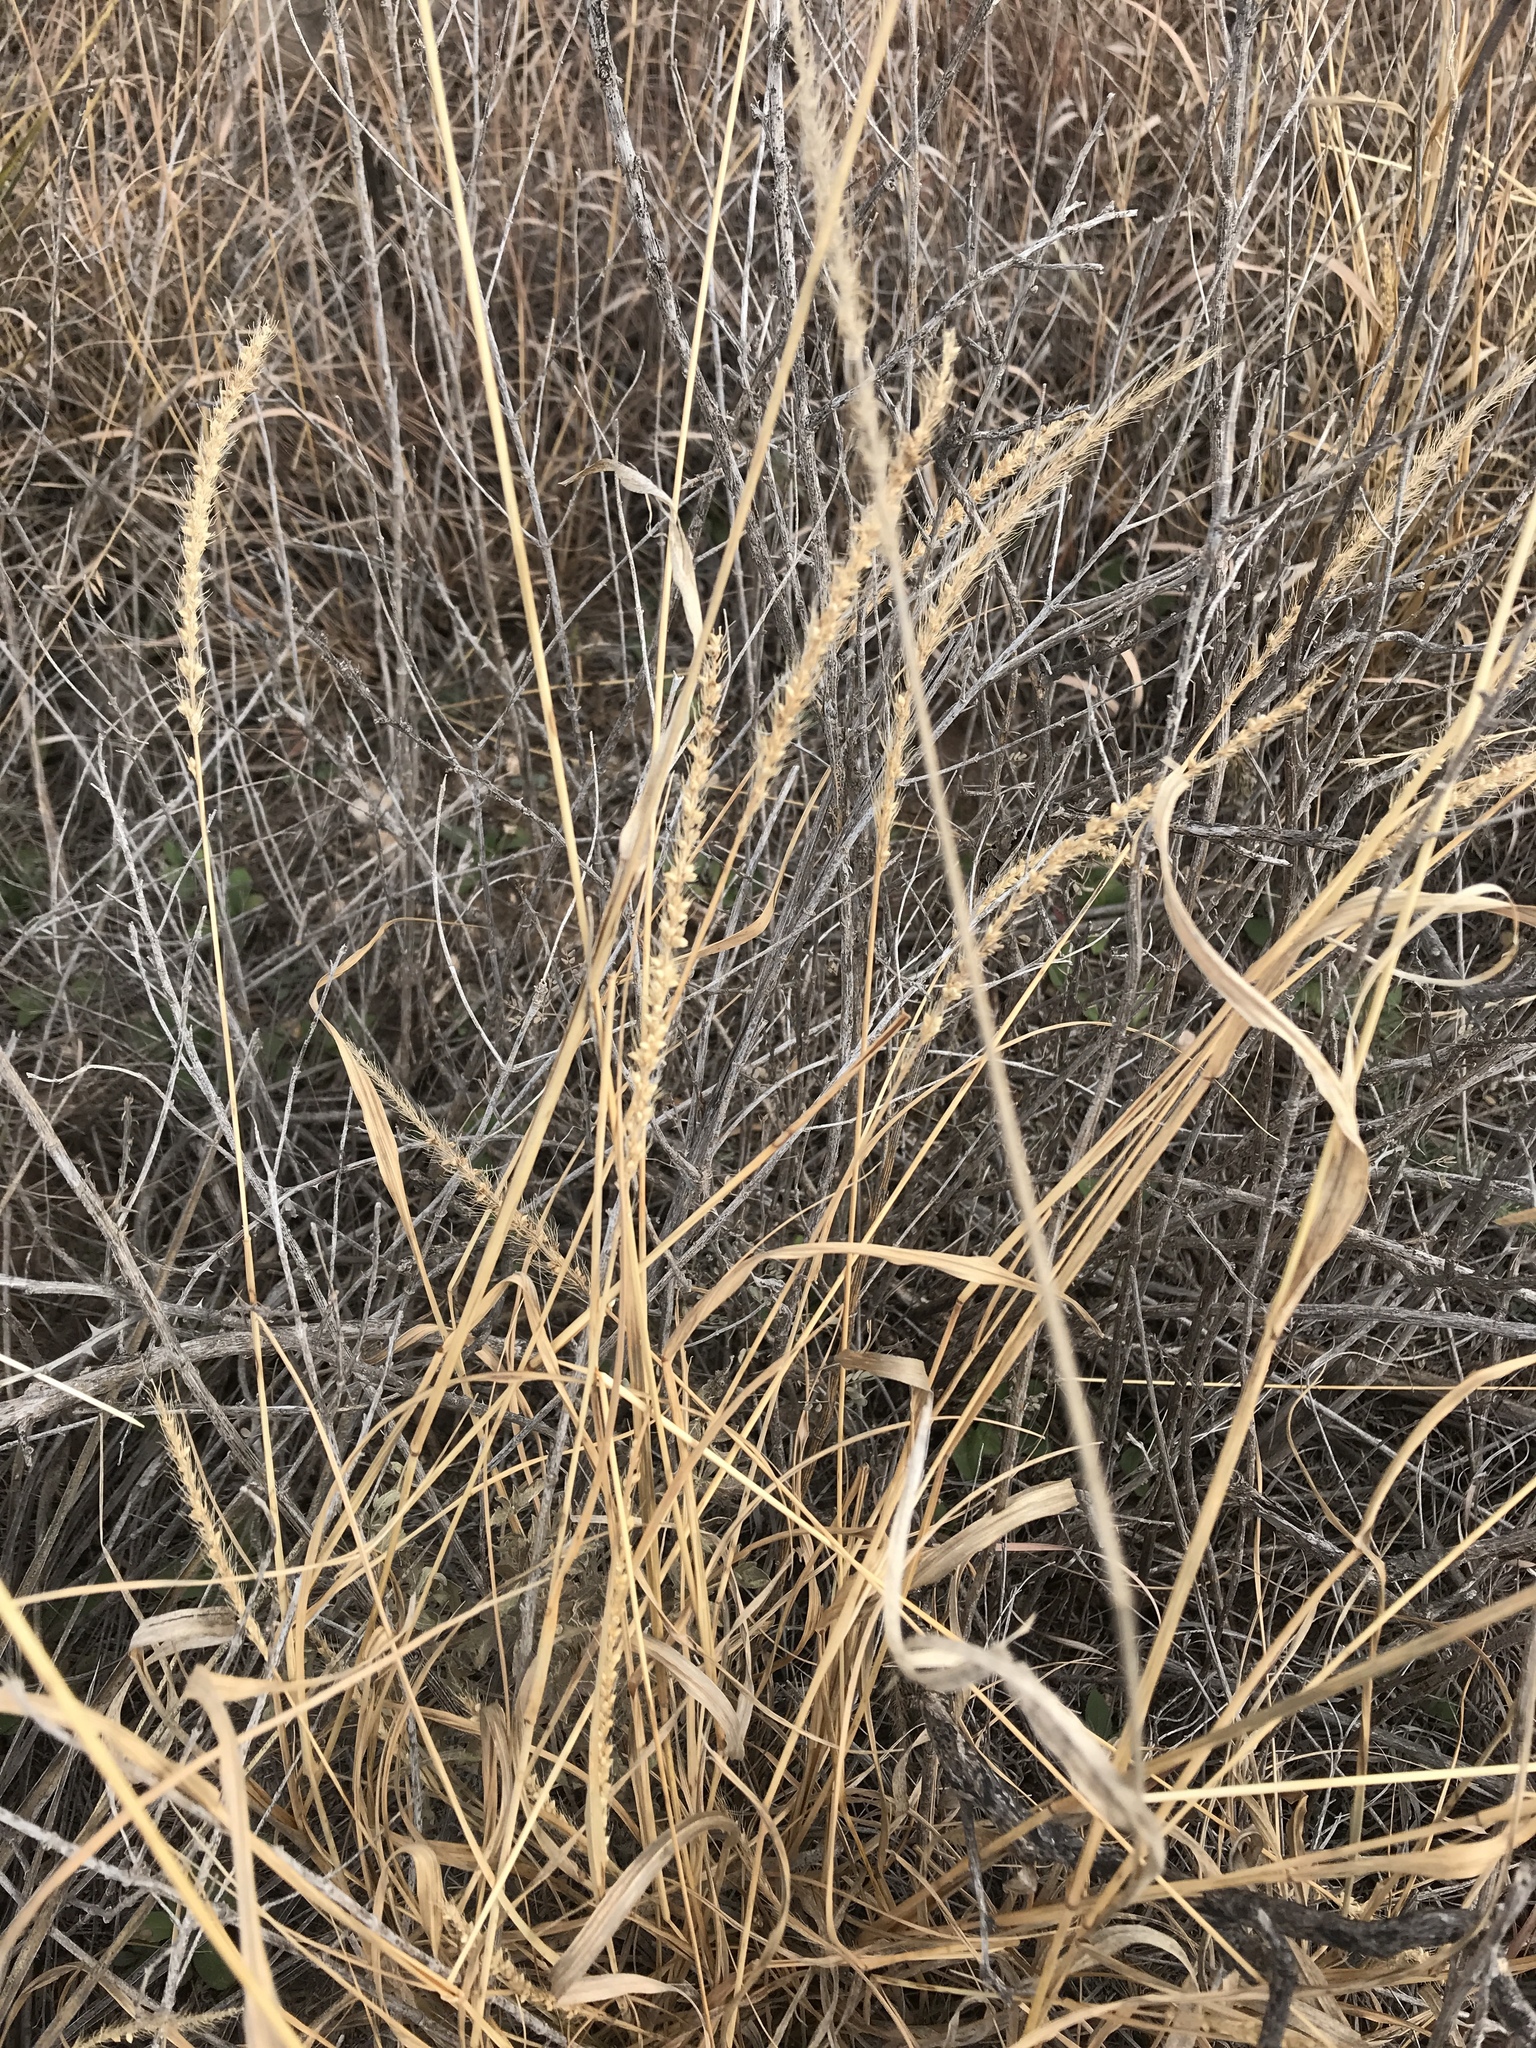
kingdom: Plantae
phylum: Tracheophyta
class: Liliopsida
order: Poales
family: Poaceae
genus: Setaria
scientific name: Setaria leucopila
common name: Plains bristle grass
